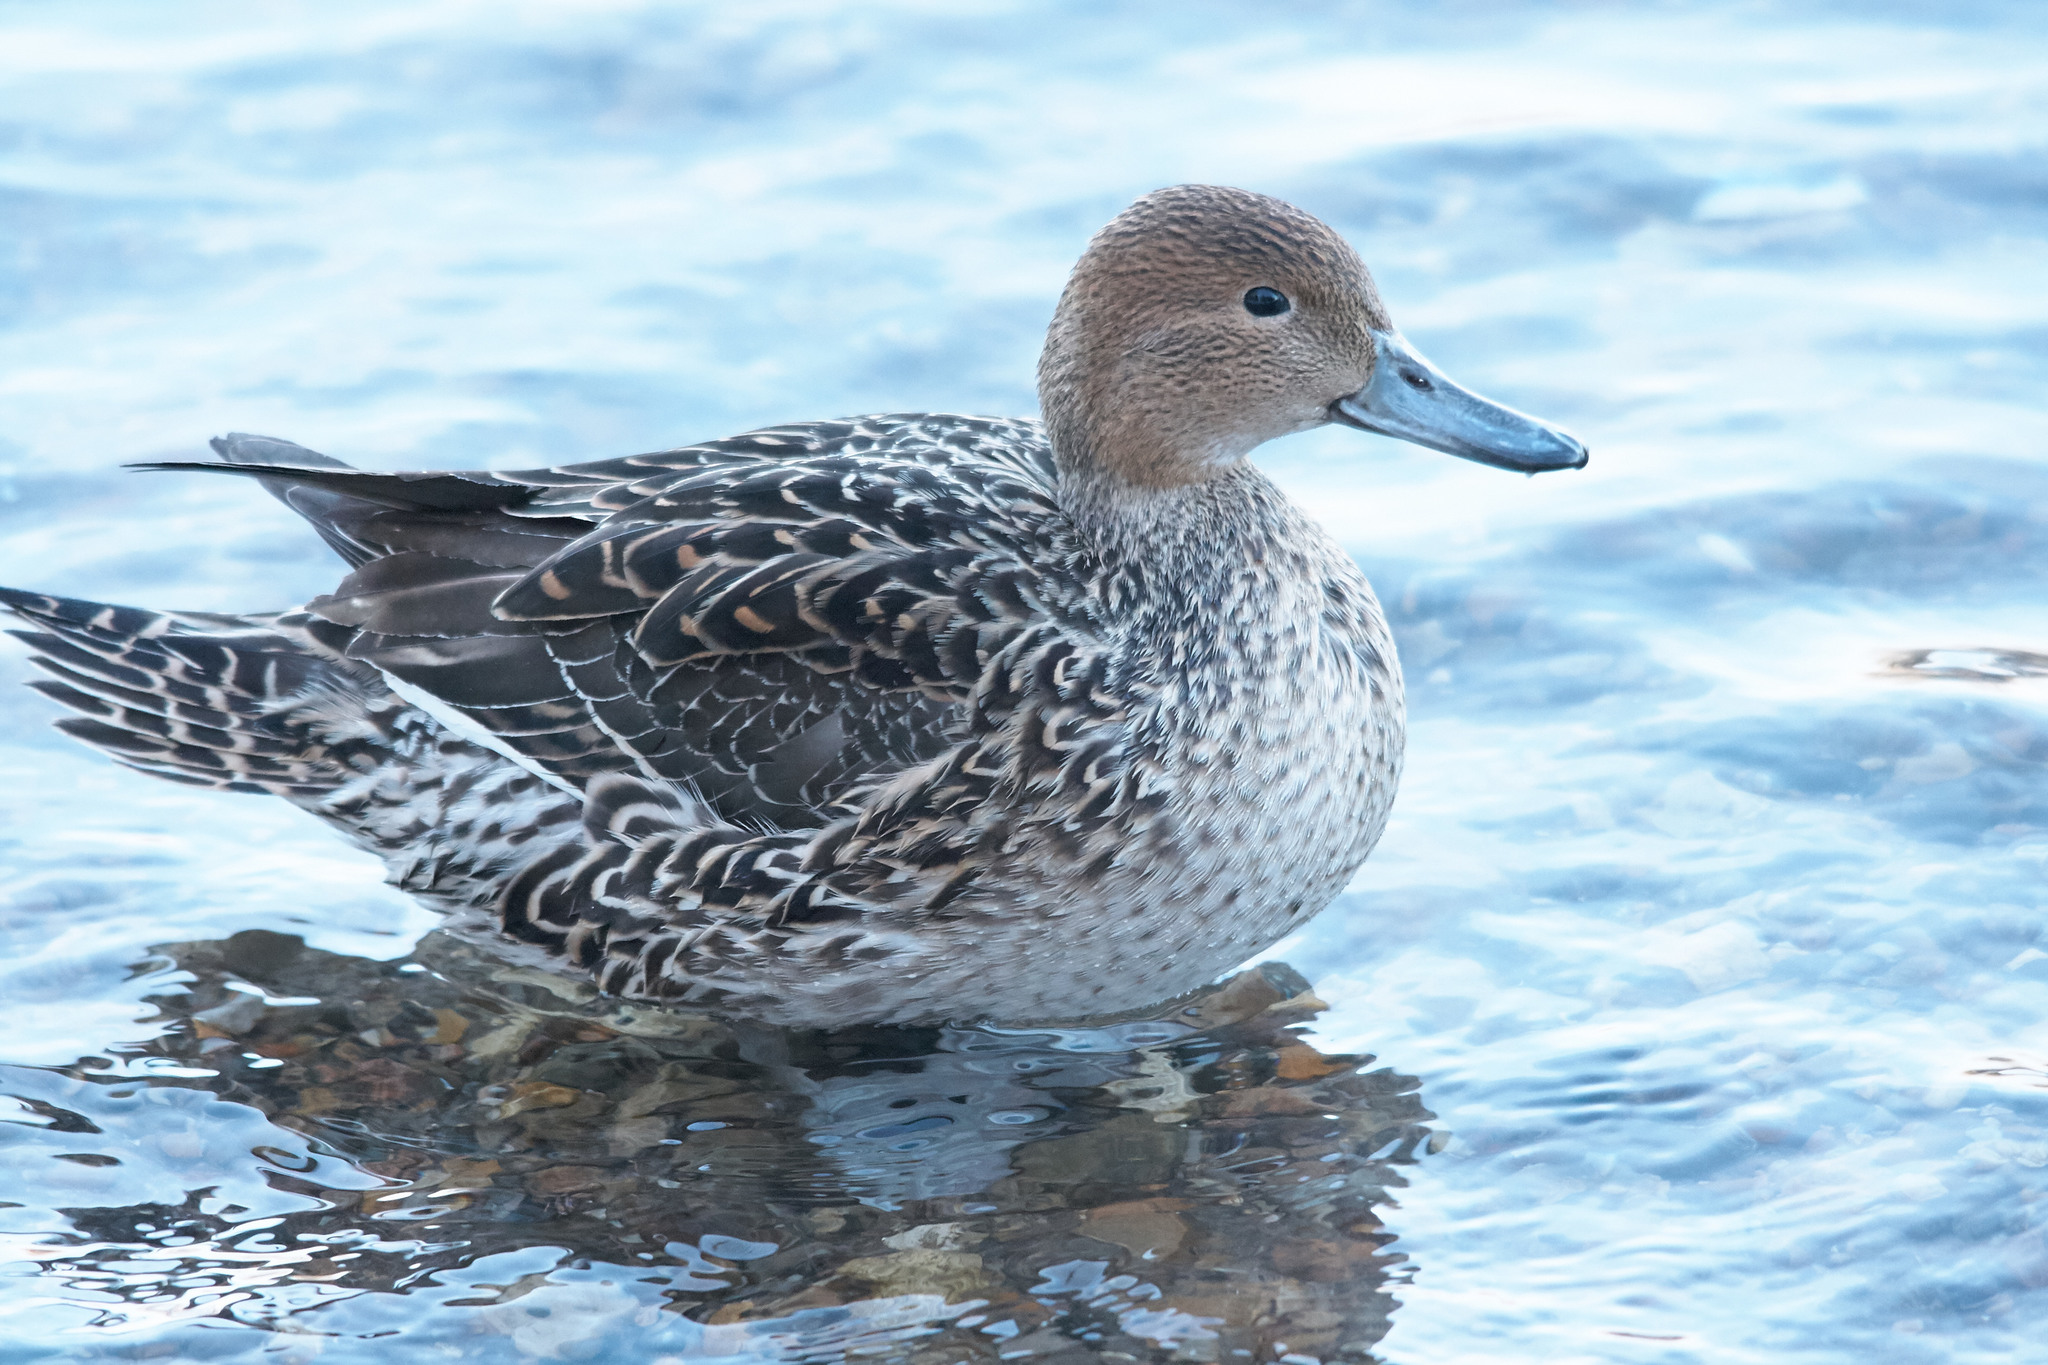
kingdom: Animalia
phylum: Chordata
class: Aves
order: Anseriformes
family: Anatidae
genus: Anas
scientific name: Anas acuta
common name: Northern pintail
